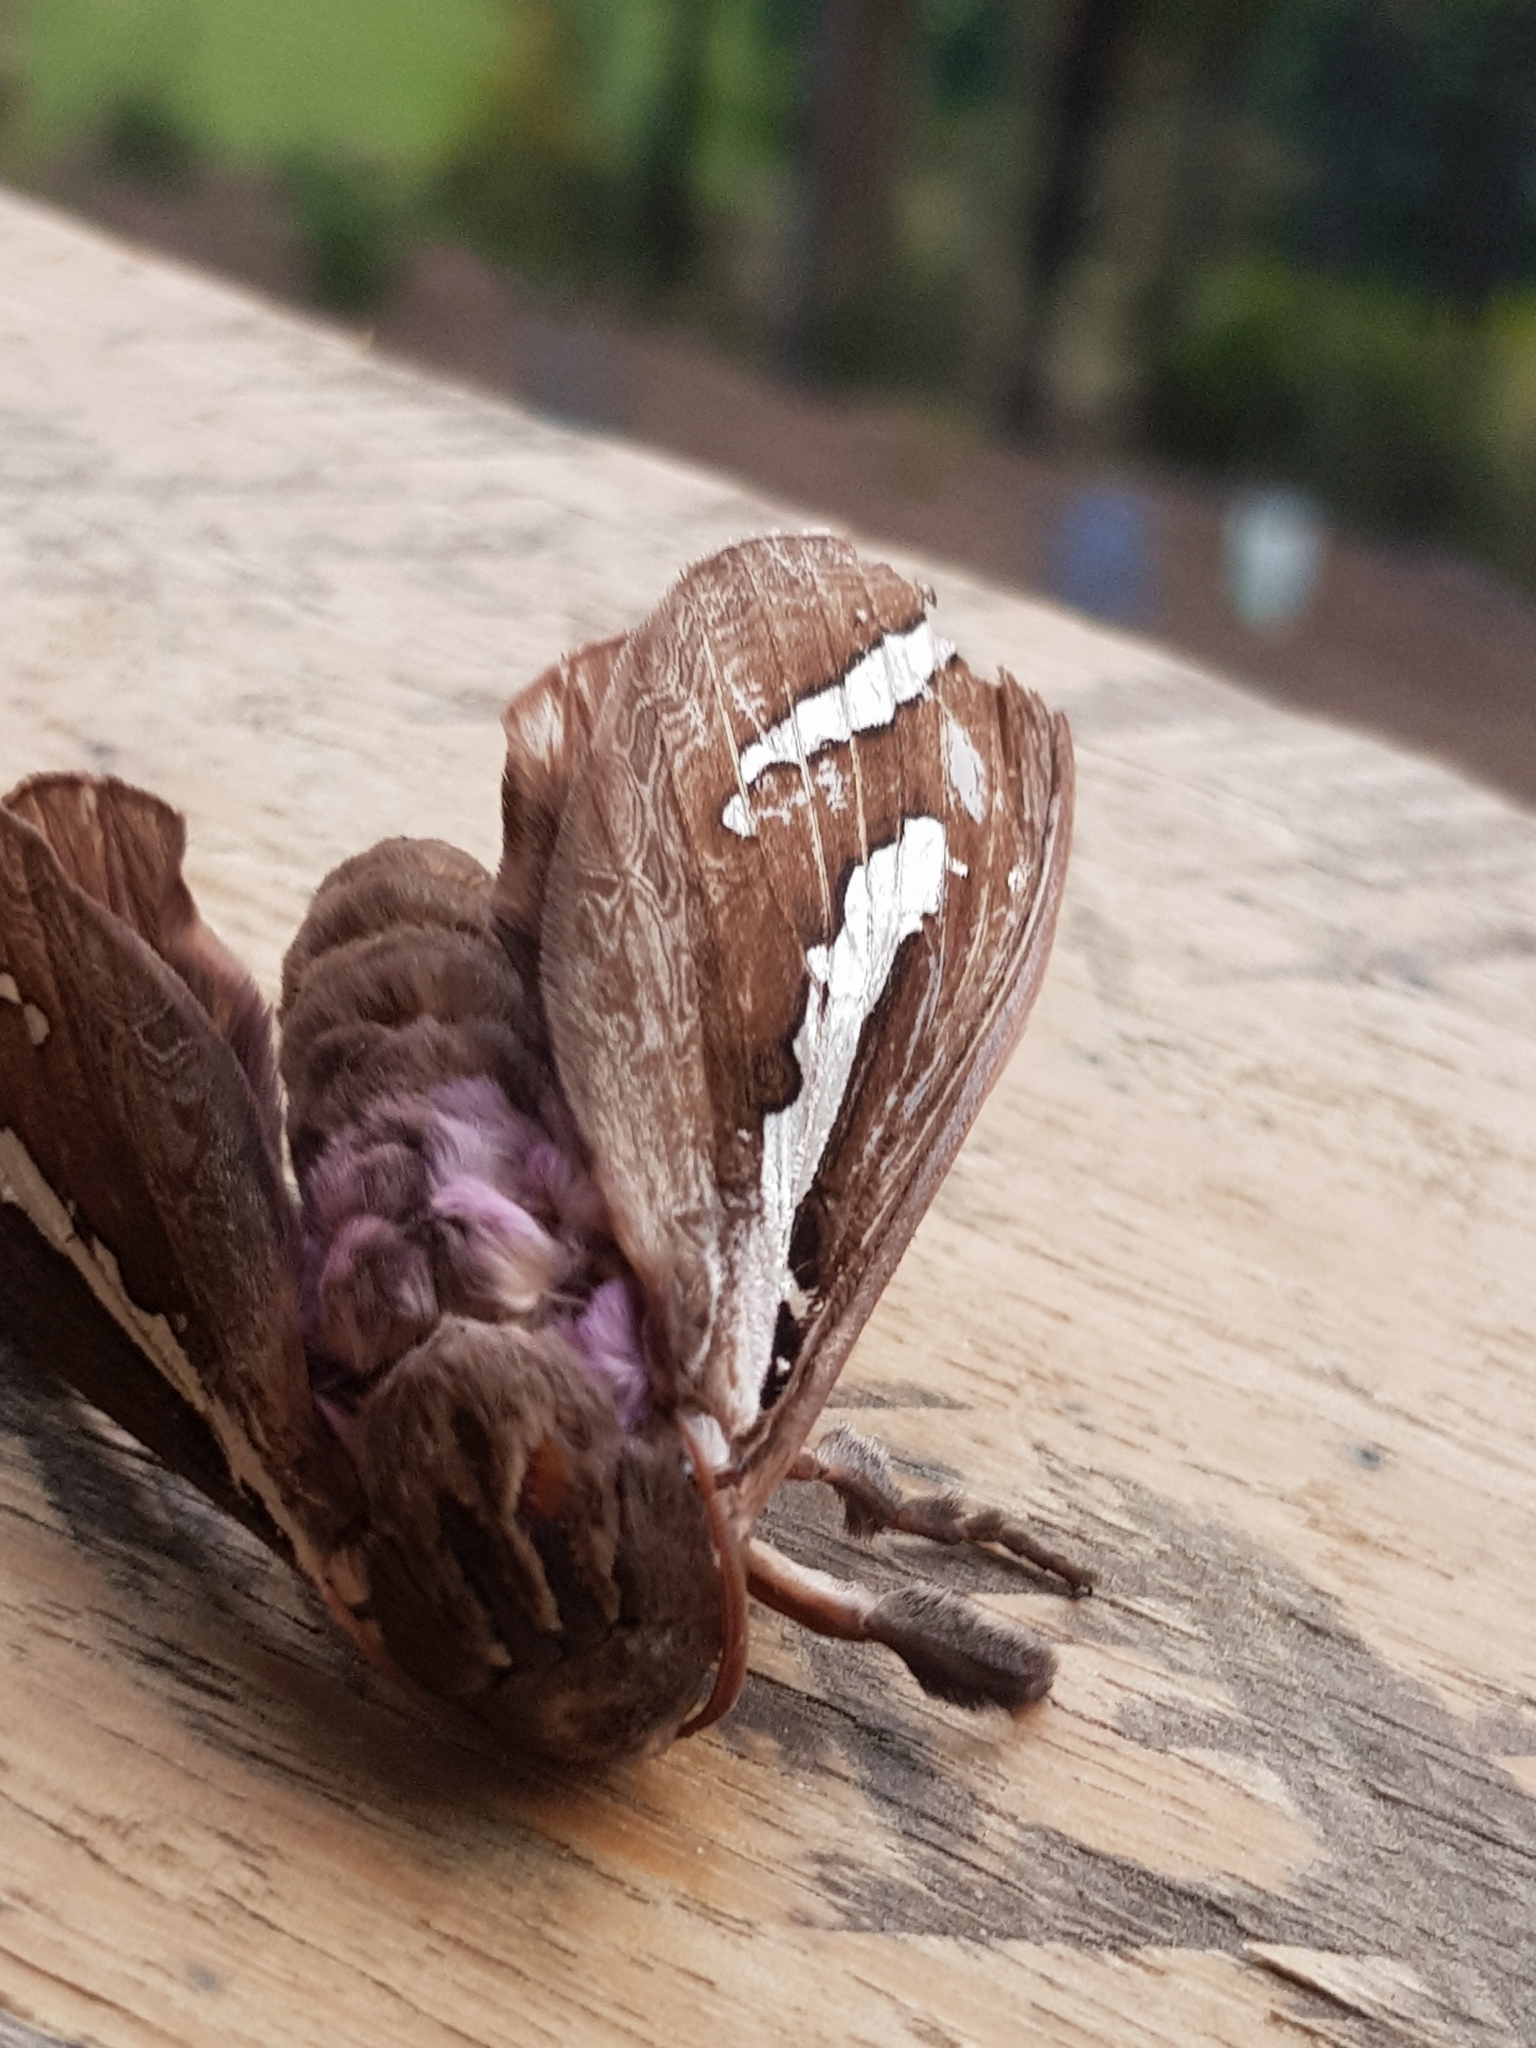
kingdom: Animalia
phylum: Arthropoda
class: Insecta
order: Lepidoptera
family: Hepialidae
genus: Abantiades
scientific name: Abantiades latipennis
